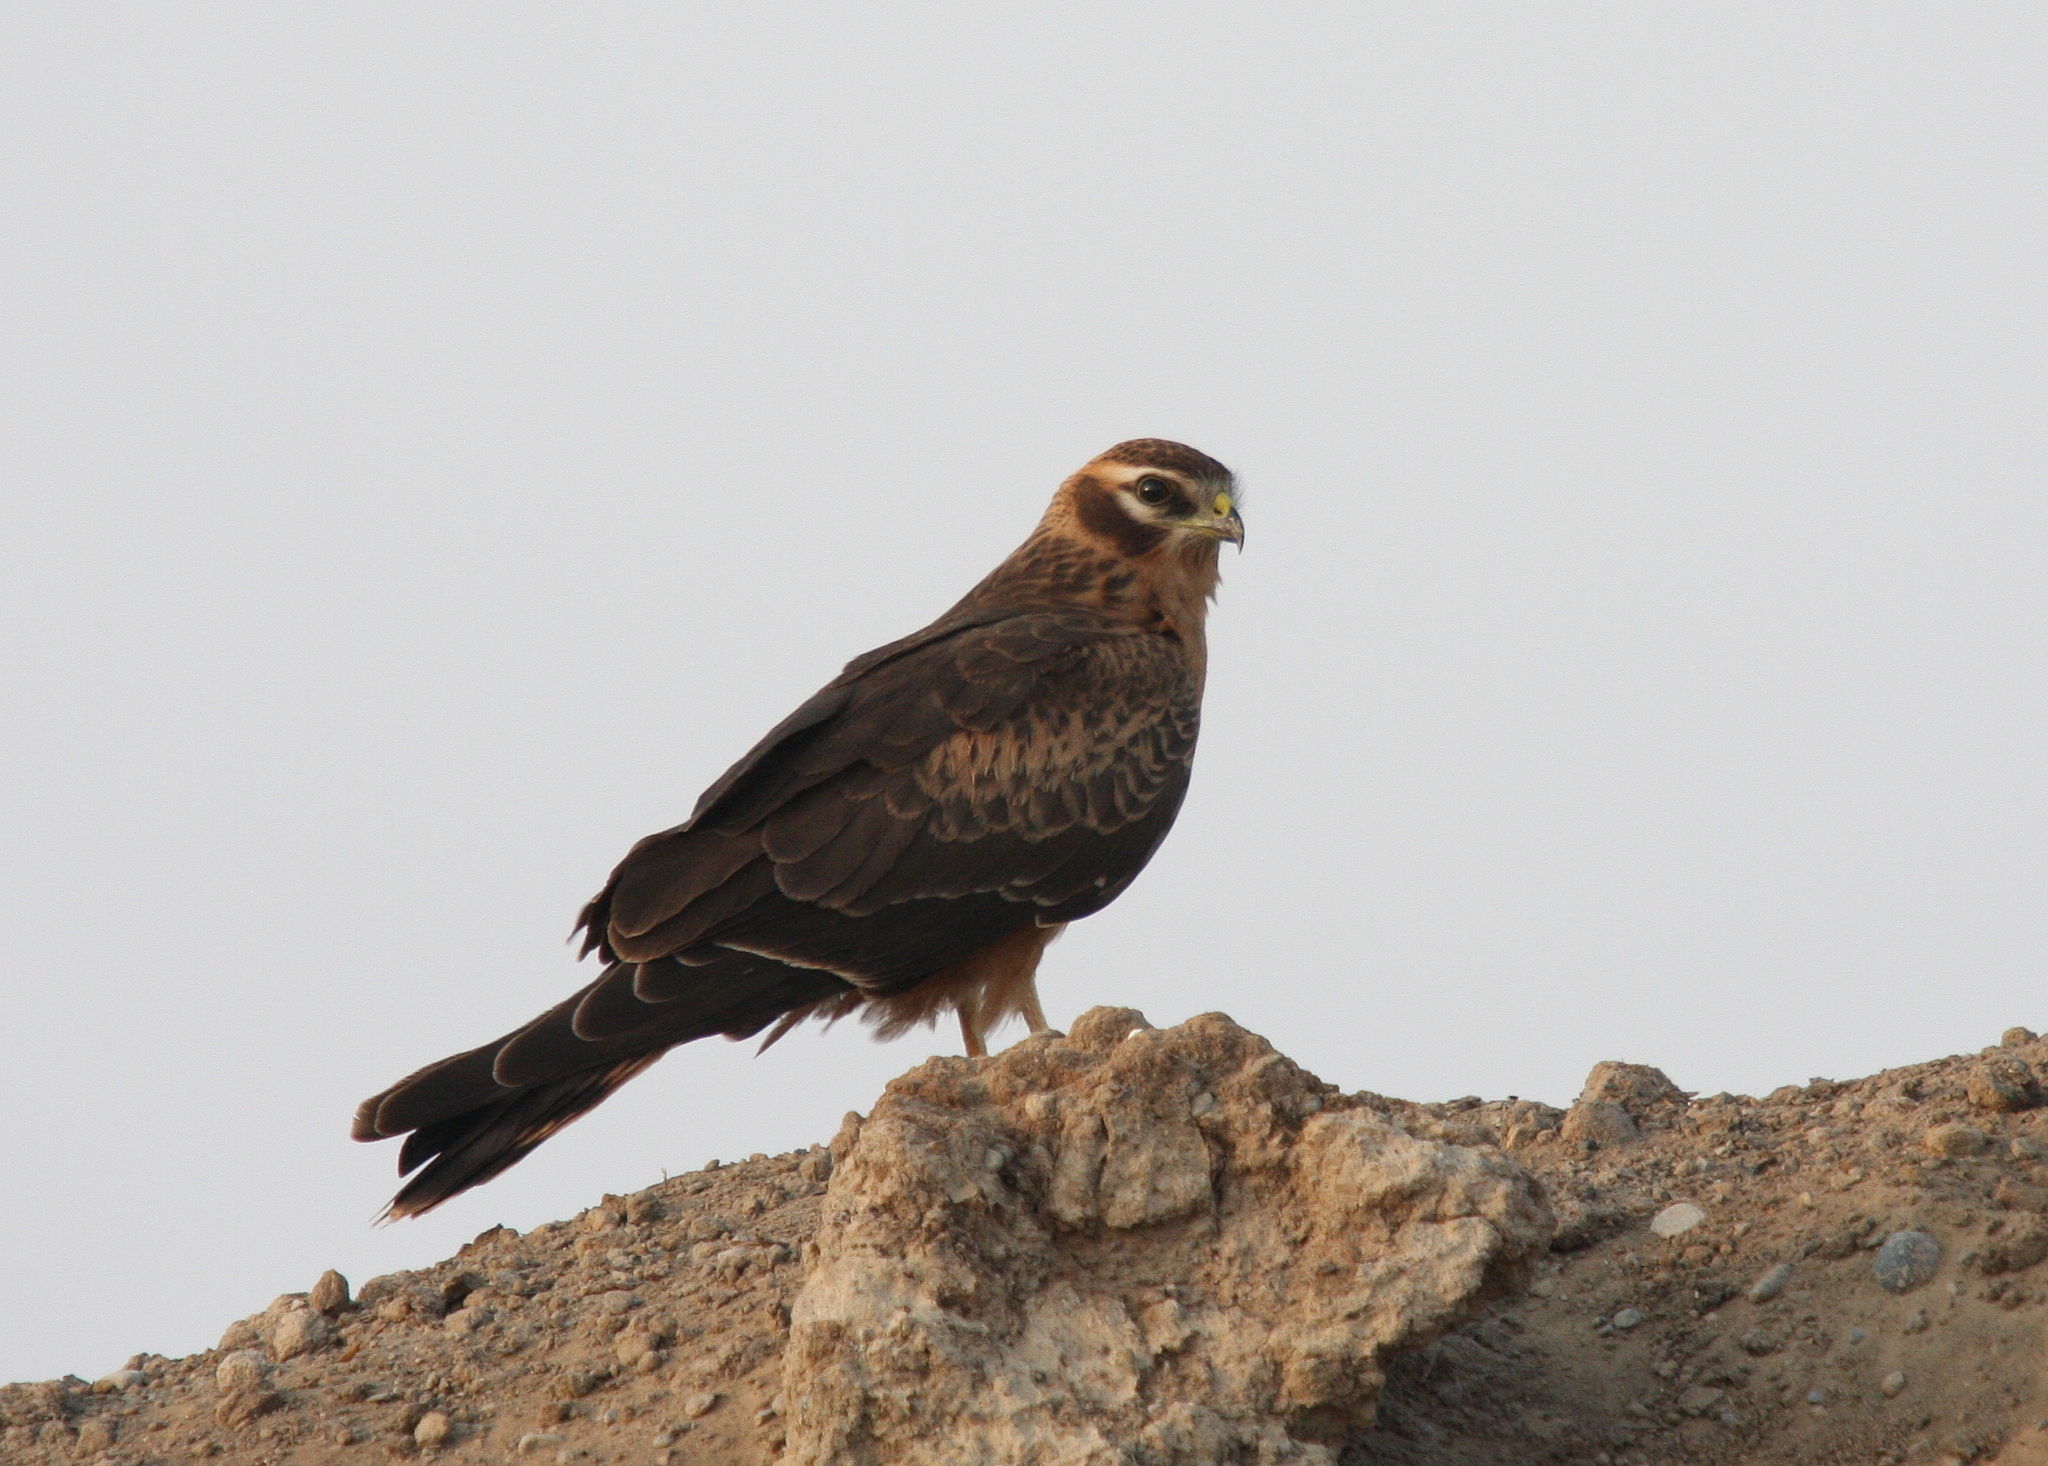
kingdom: Animalia
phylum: Chordata
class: Aves
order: Accipitriformes
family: Accipitridae
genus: Circus
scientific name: Circus pygargus
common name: Montagu's harrier
